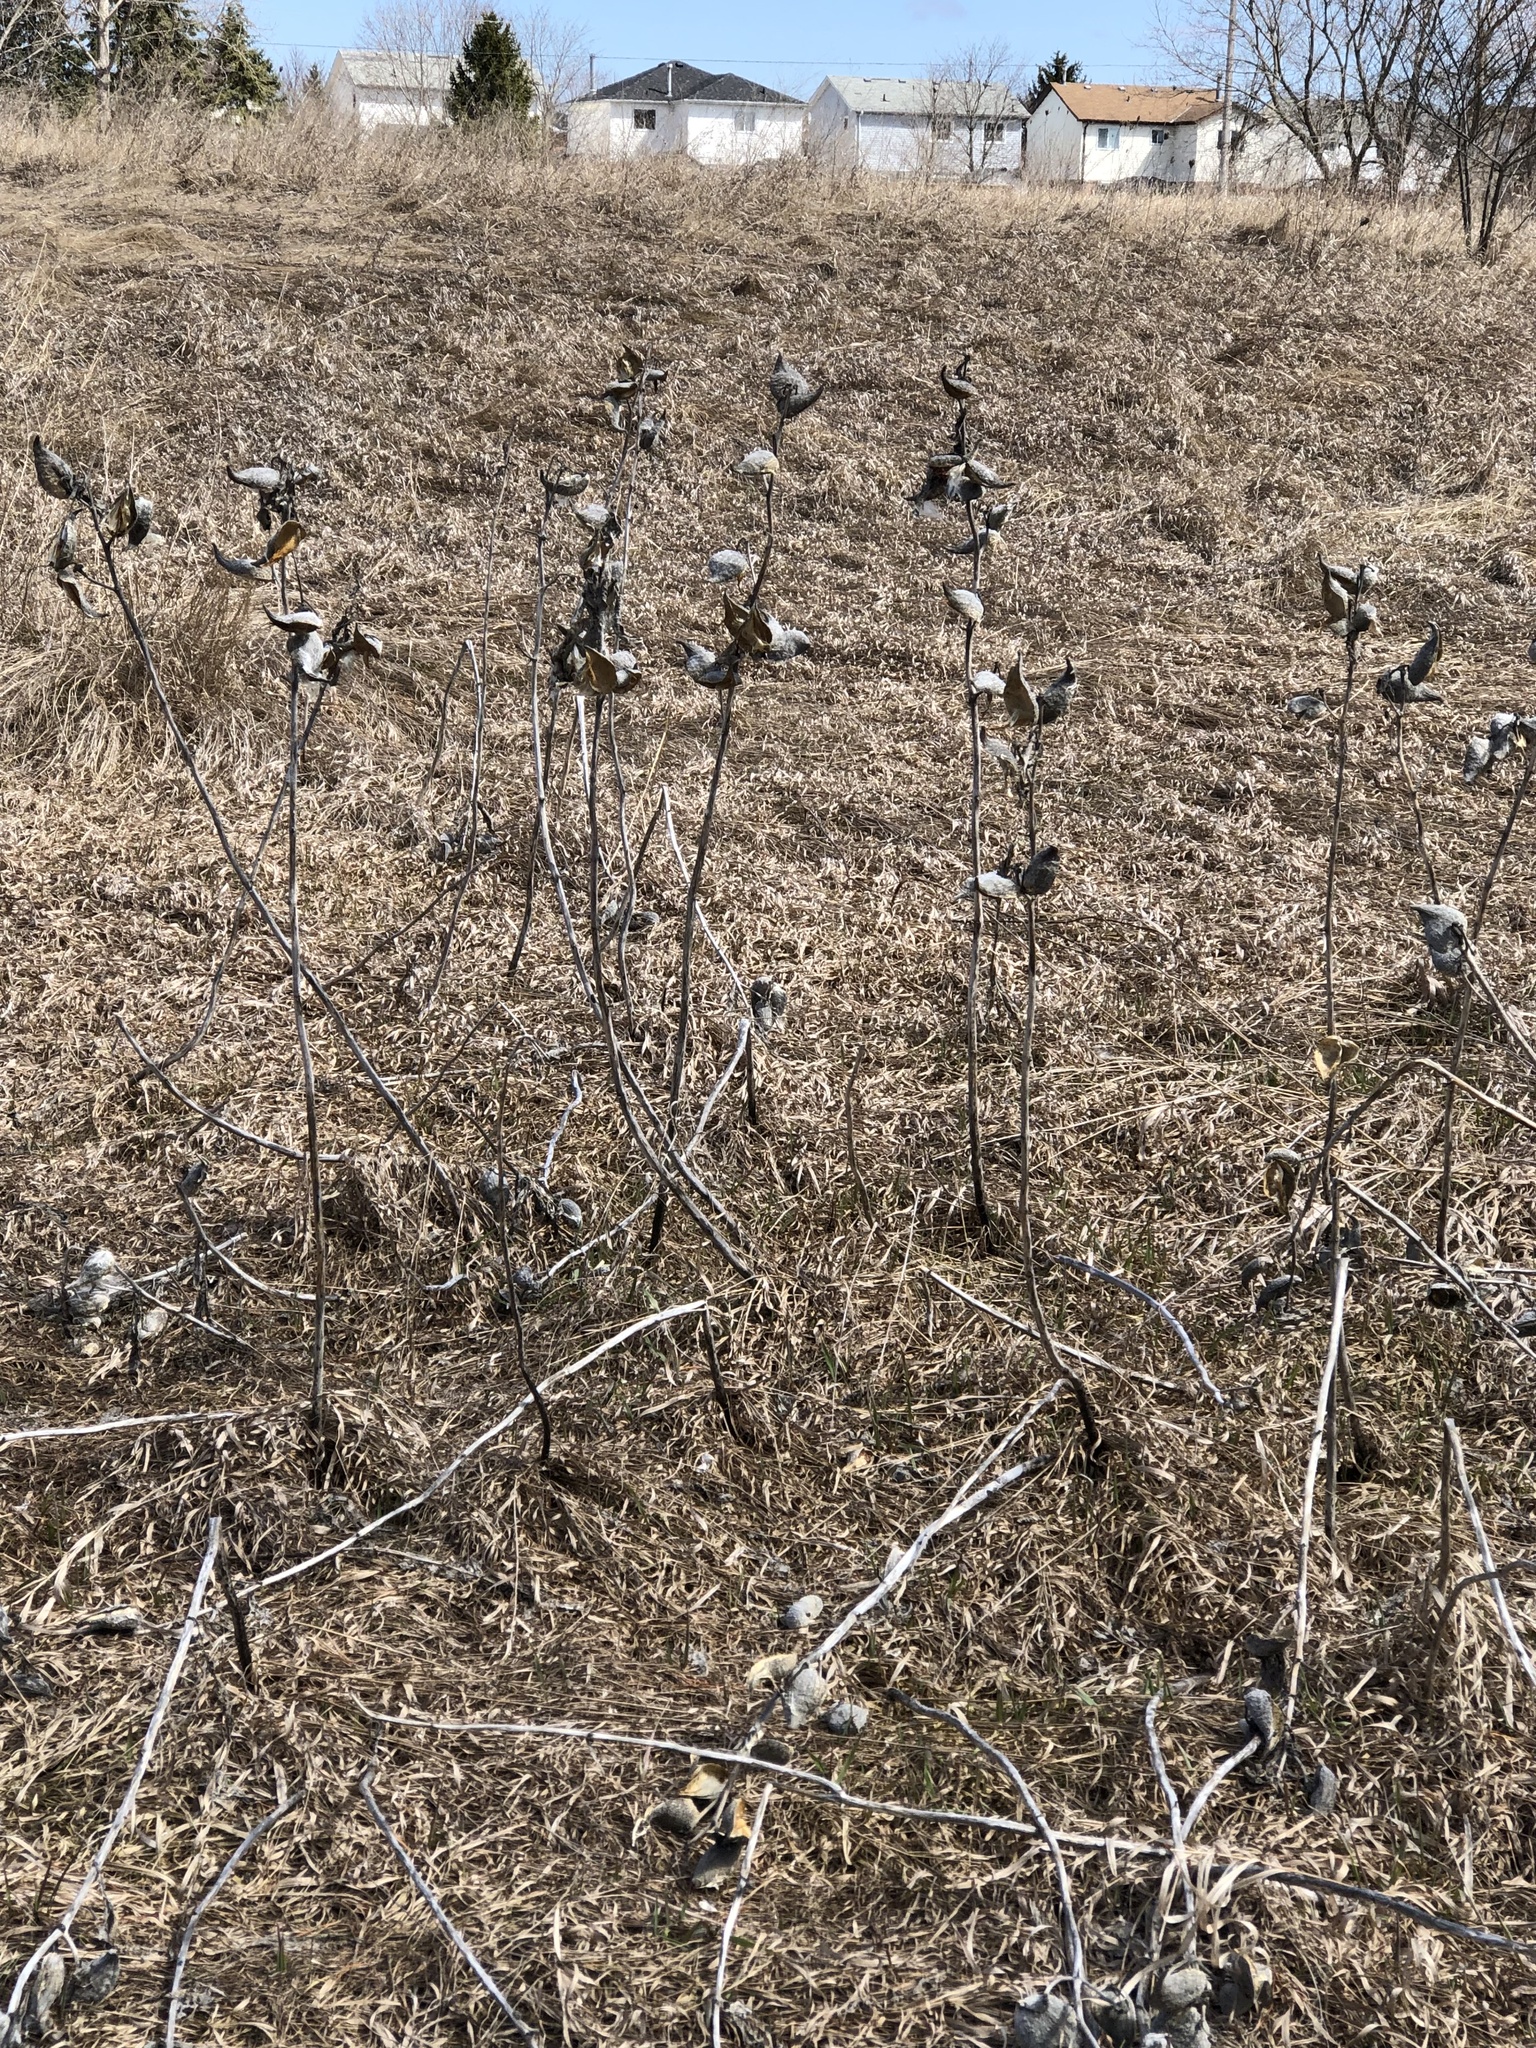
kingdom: Plantae
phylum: Tracheophyta
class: Magnoliopsida
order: Gentianales
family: Apocynaceae
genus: Asclepias
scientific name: Asclepias syriaca
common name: Common milkweed
